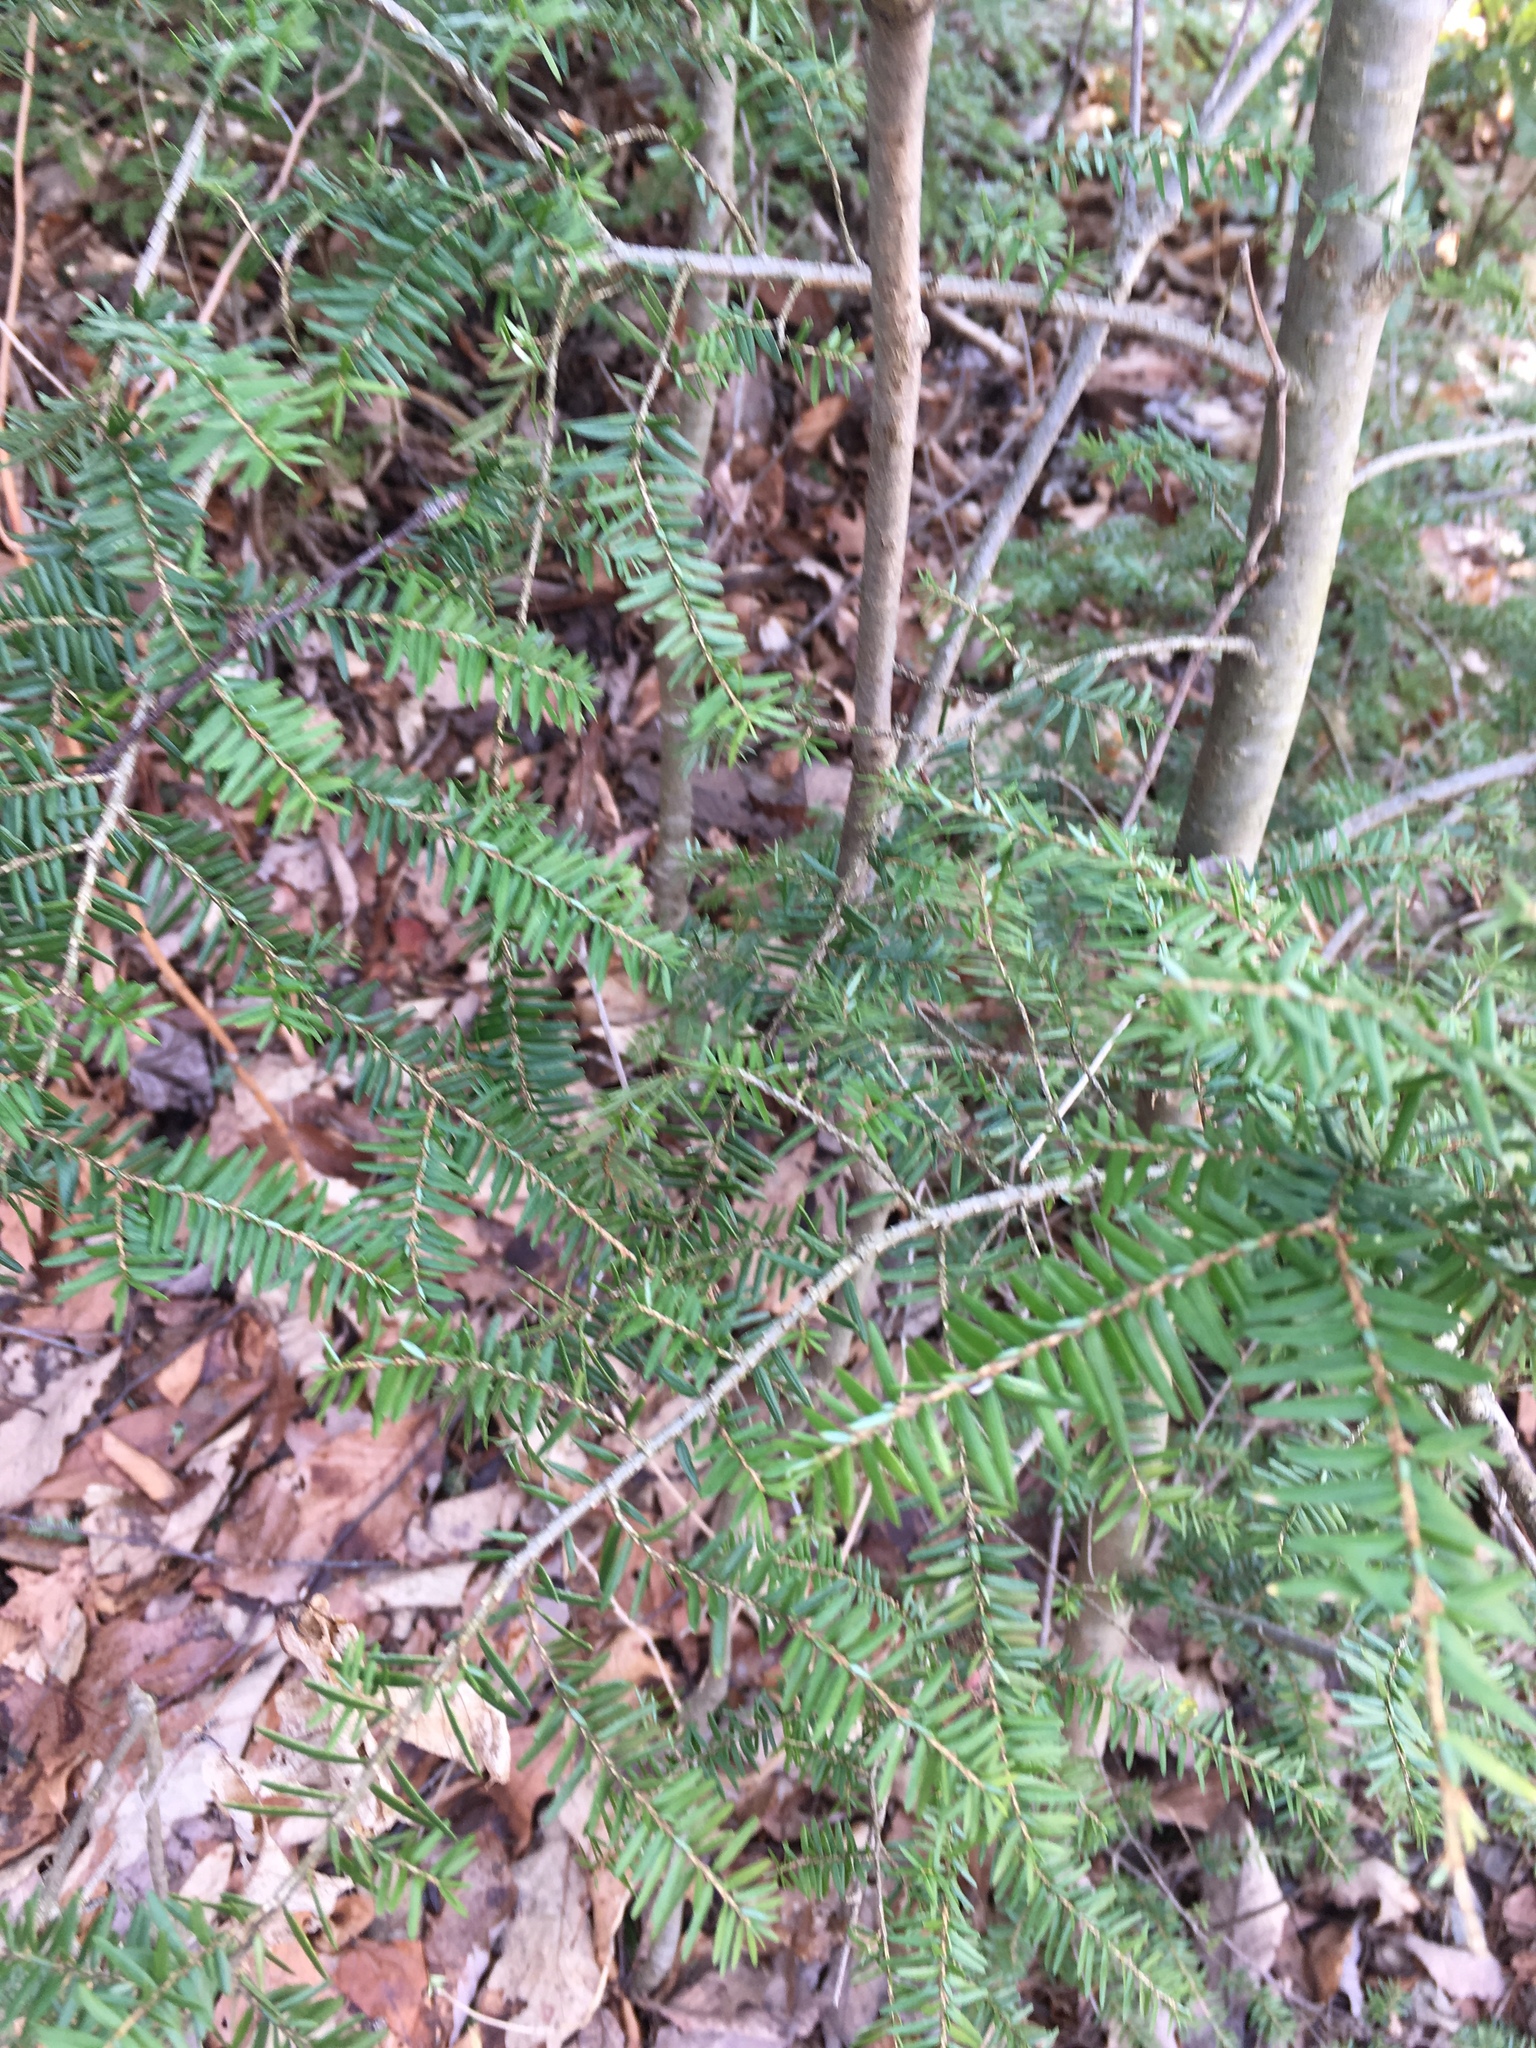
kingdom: Plantae
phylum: Tracheophyta
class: Pinopsida
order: Pinales
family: Pinaceae
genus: Tsuga
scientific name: Tsuga canadensis
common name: Eastern hemlock
